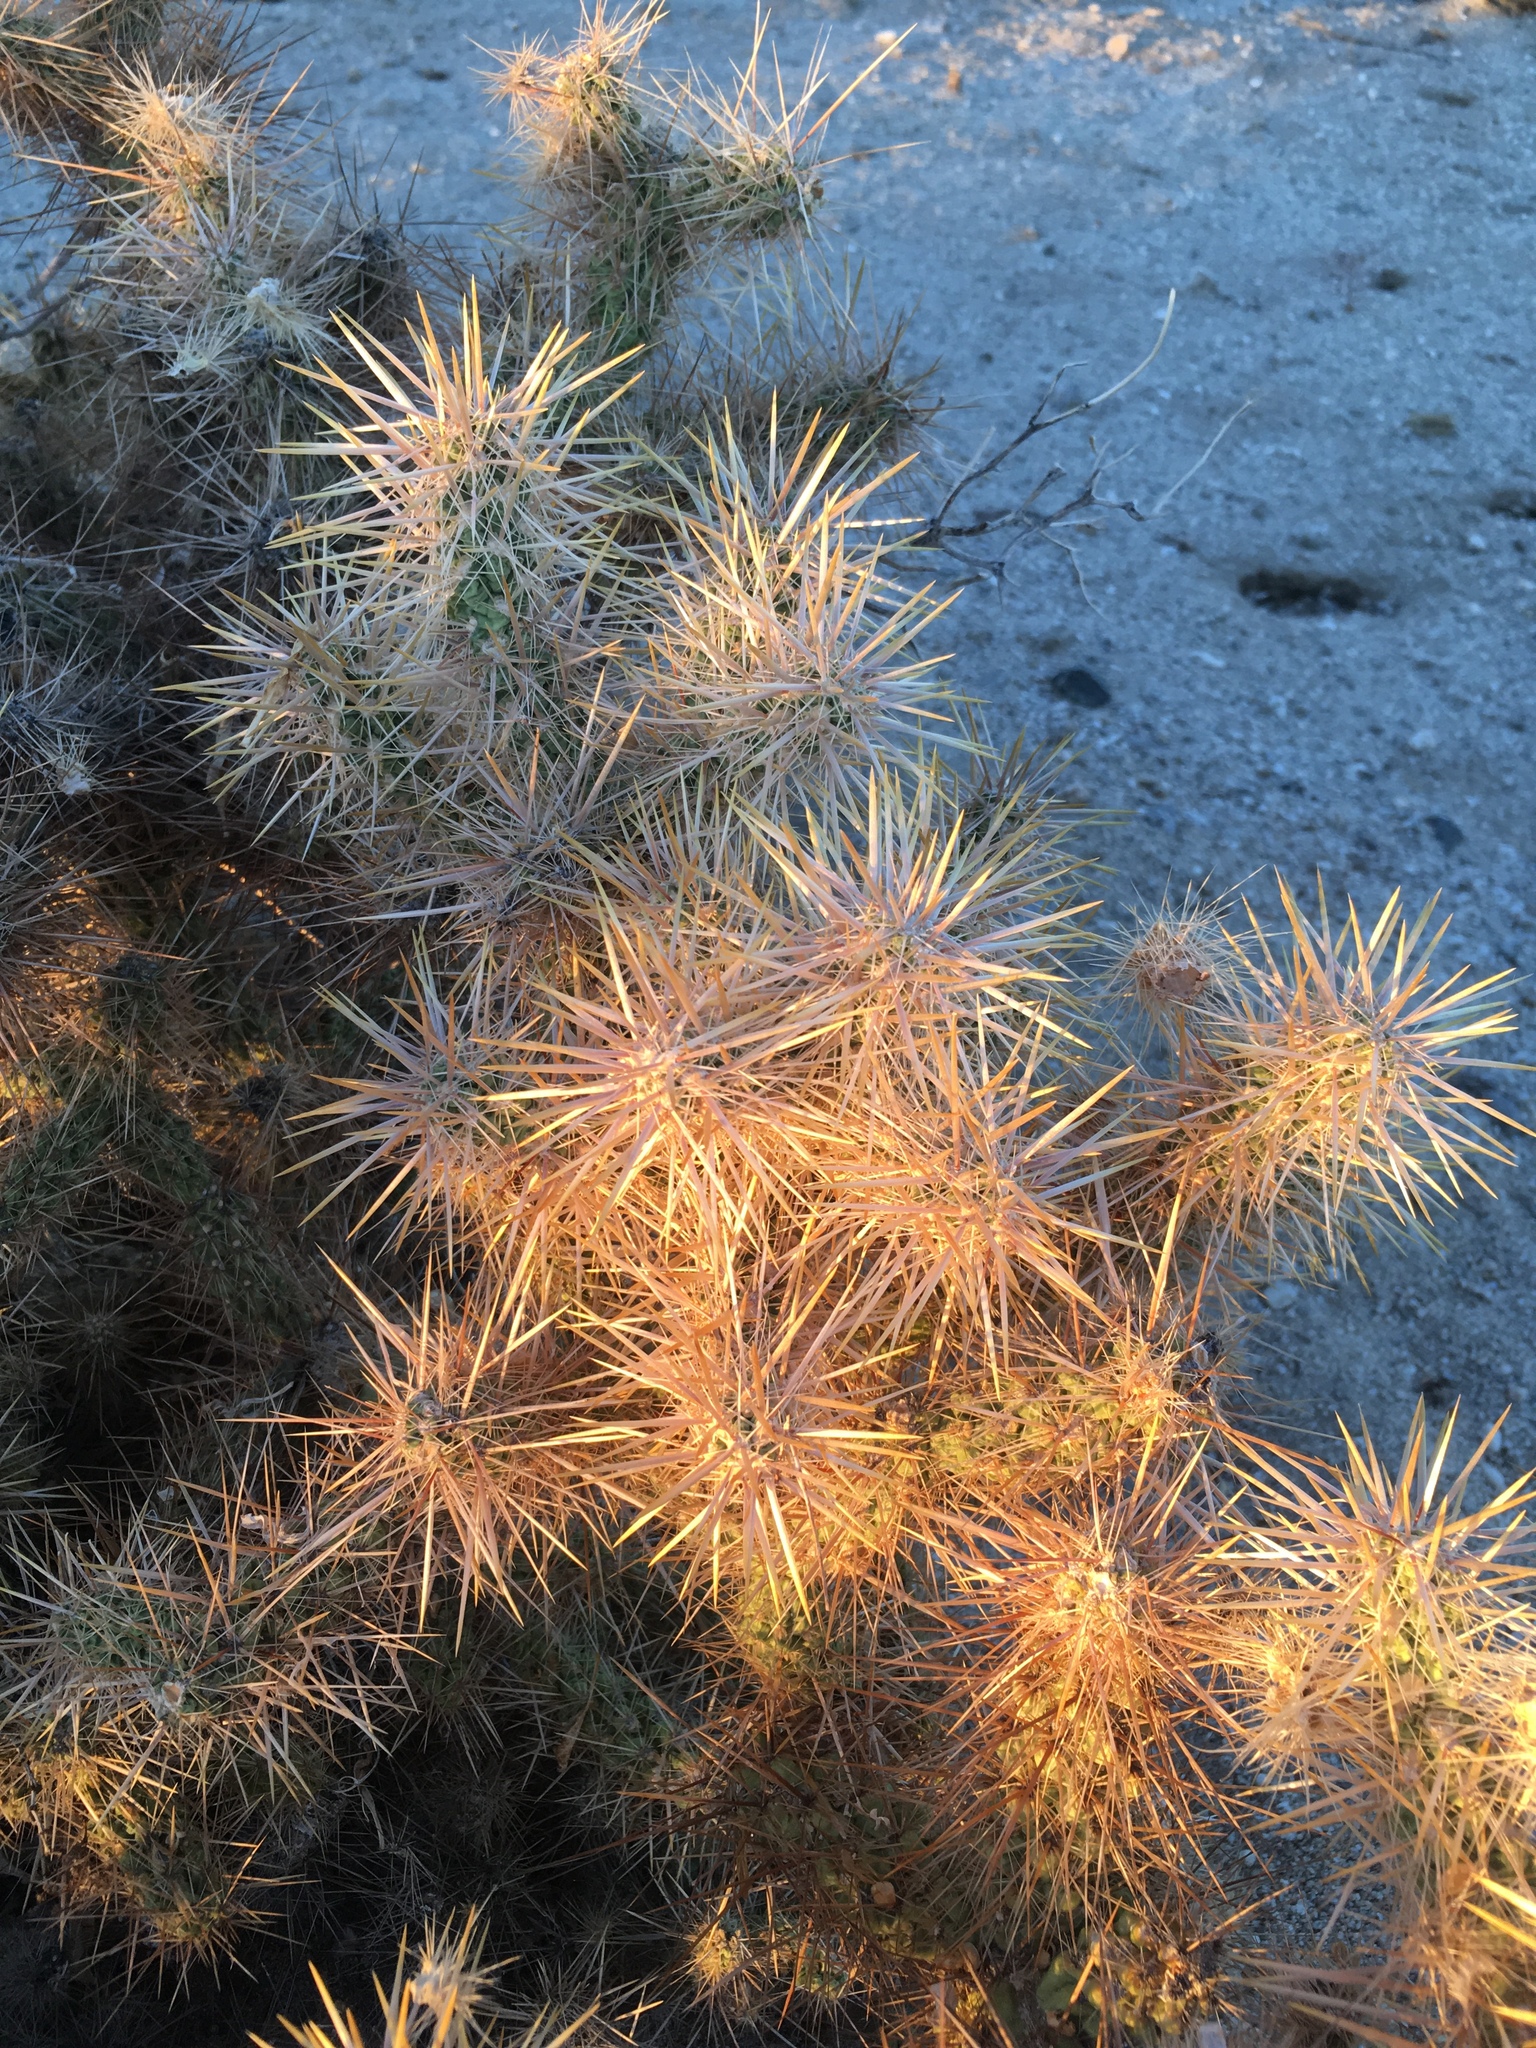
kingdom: Plantae
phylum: Tracheophyta
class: Magnoliopsida
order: Caryophyllales
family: Cactaceae
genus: Cylindropuntia
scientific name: Cylindropuntia echinocarpa
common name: Ground cholla
